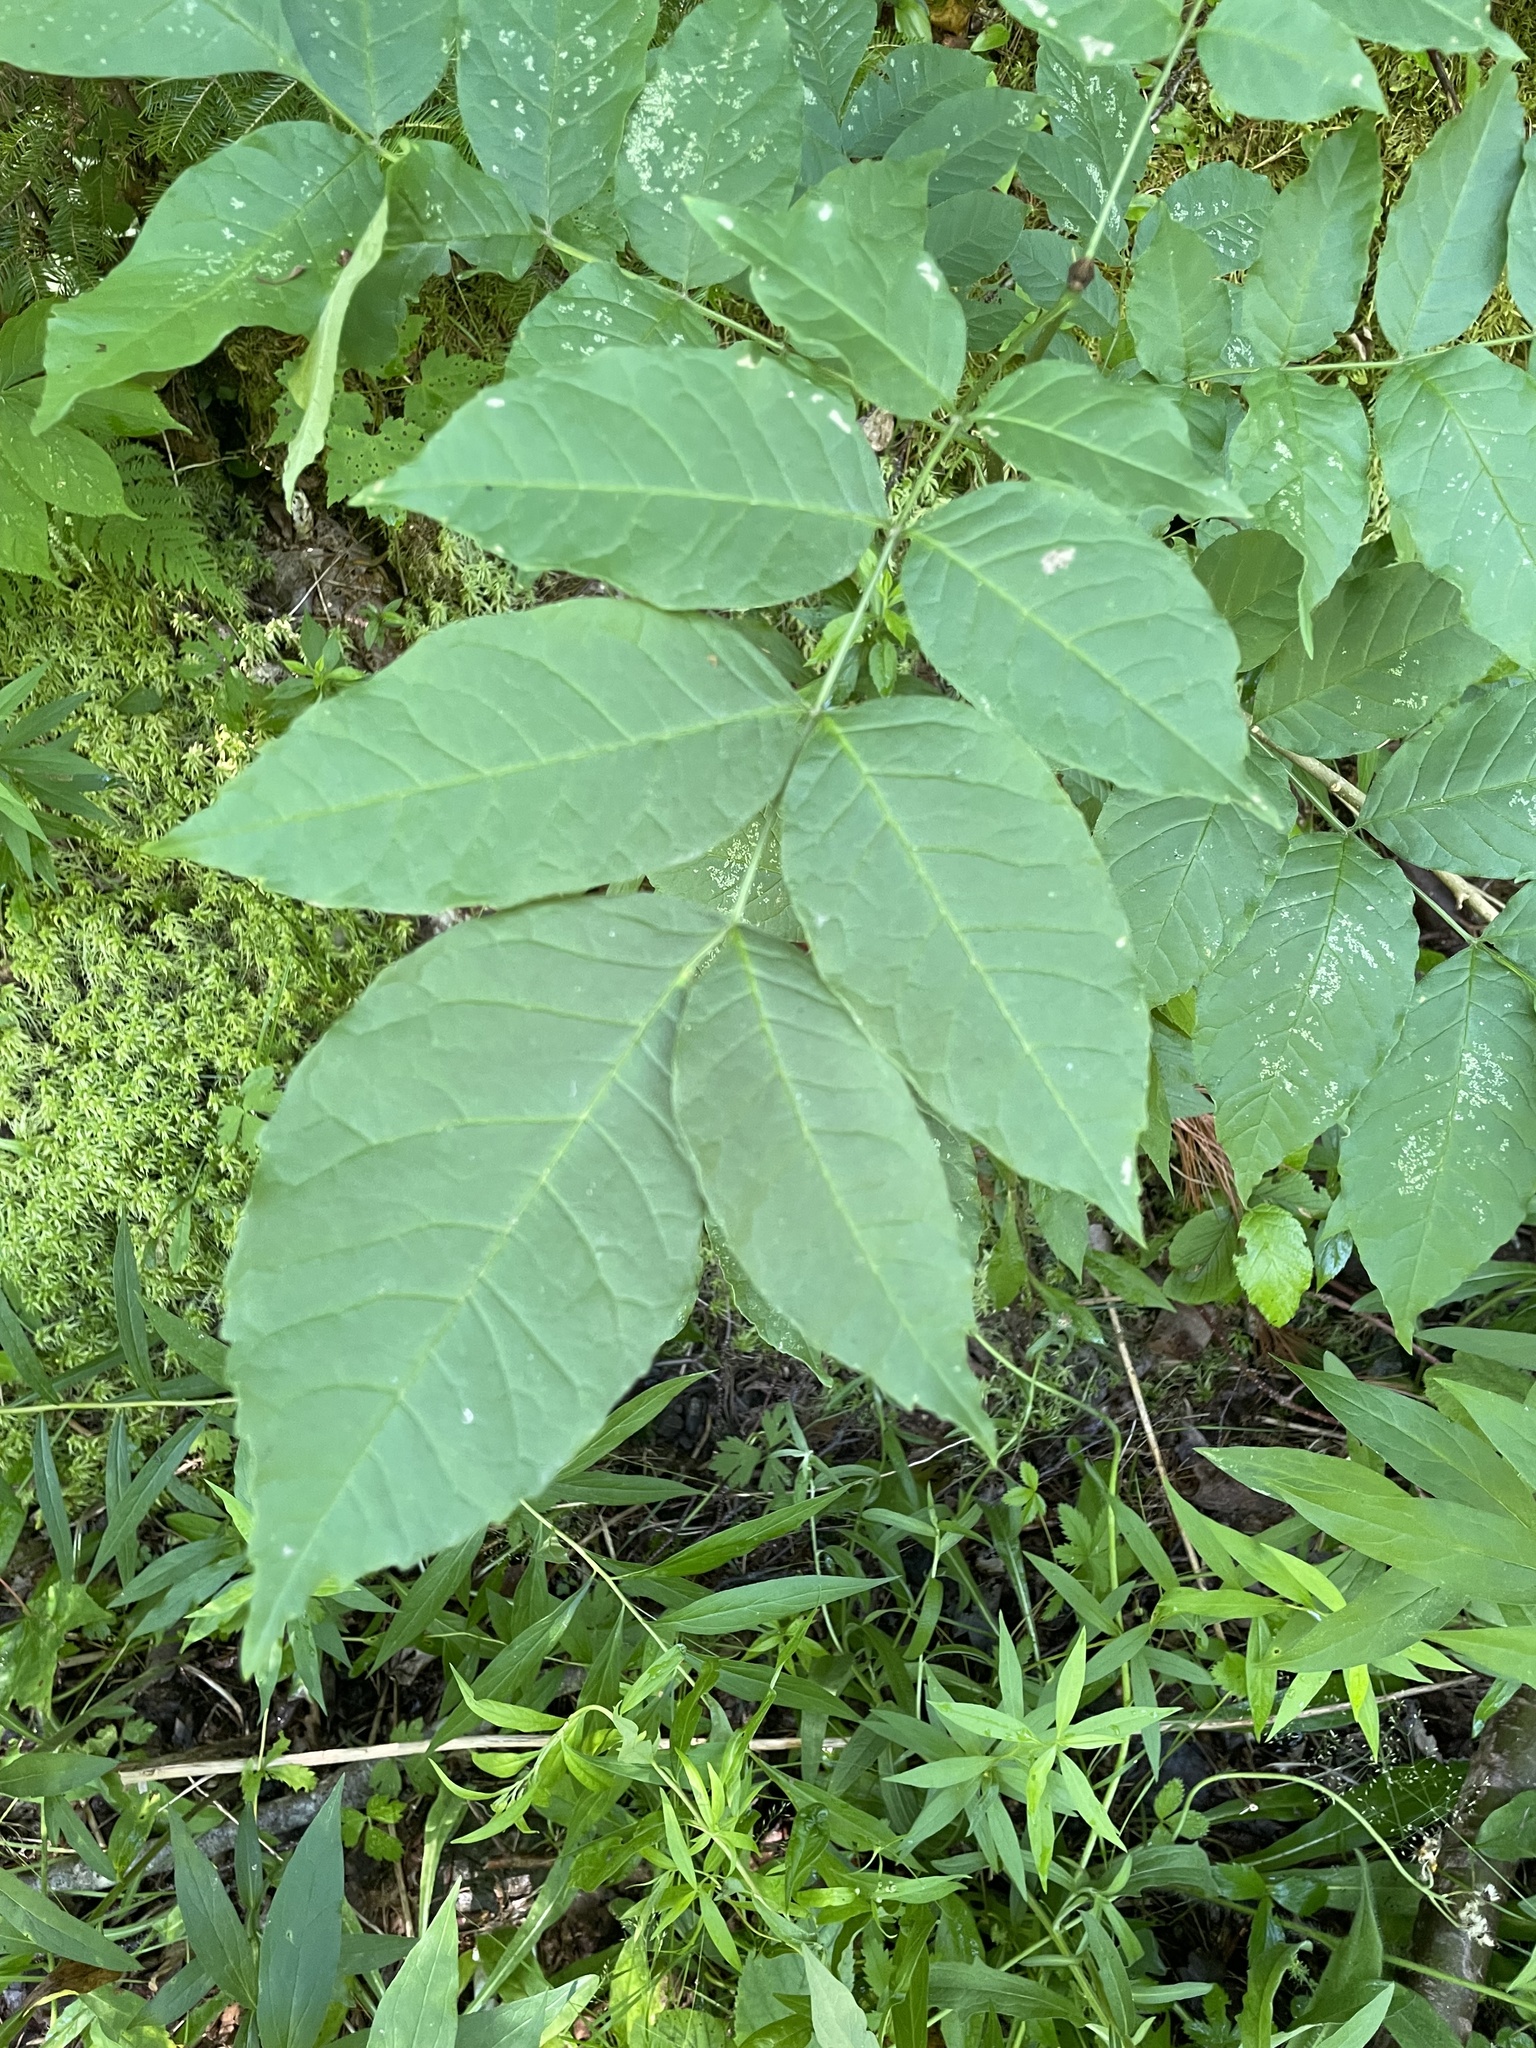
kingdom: Plantae
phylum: Tracheophyta
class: Magnoliopsida
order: Lamiales
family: Oleaceae
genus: Fraxinus
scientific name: Fraxinus americana
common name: White ash
